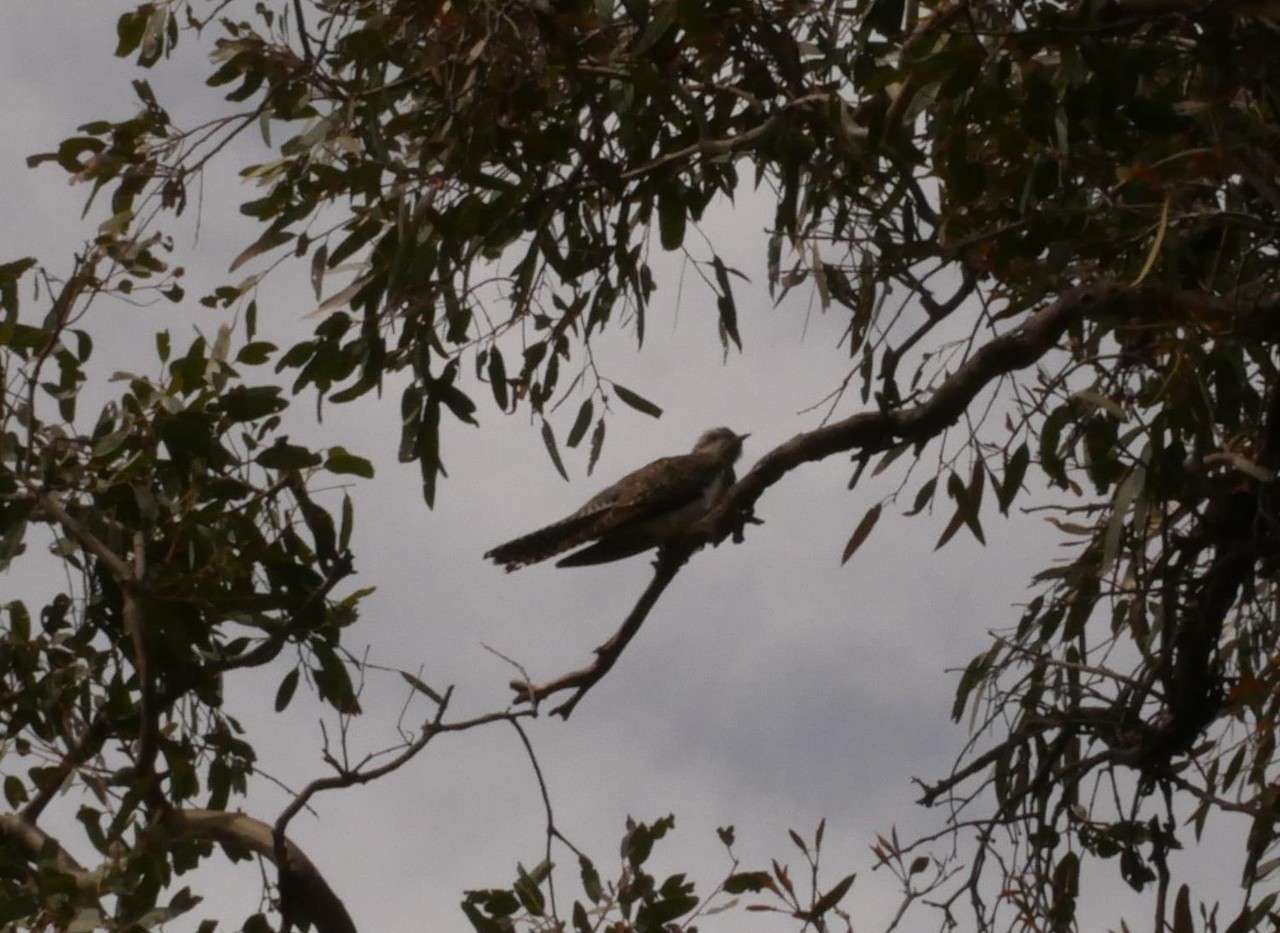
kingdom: Animalia
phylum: Chordata
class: Aves
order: Cuculiformes
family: Cuculidae
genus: Cuculus
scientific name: Cuculus pallidus
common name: Pallid cuckoo
